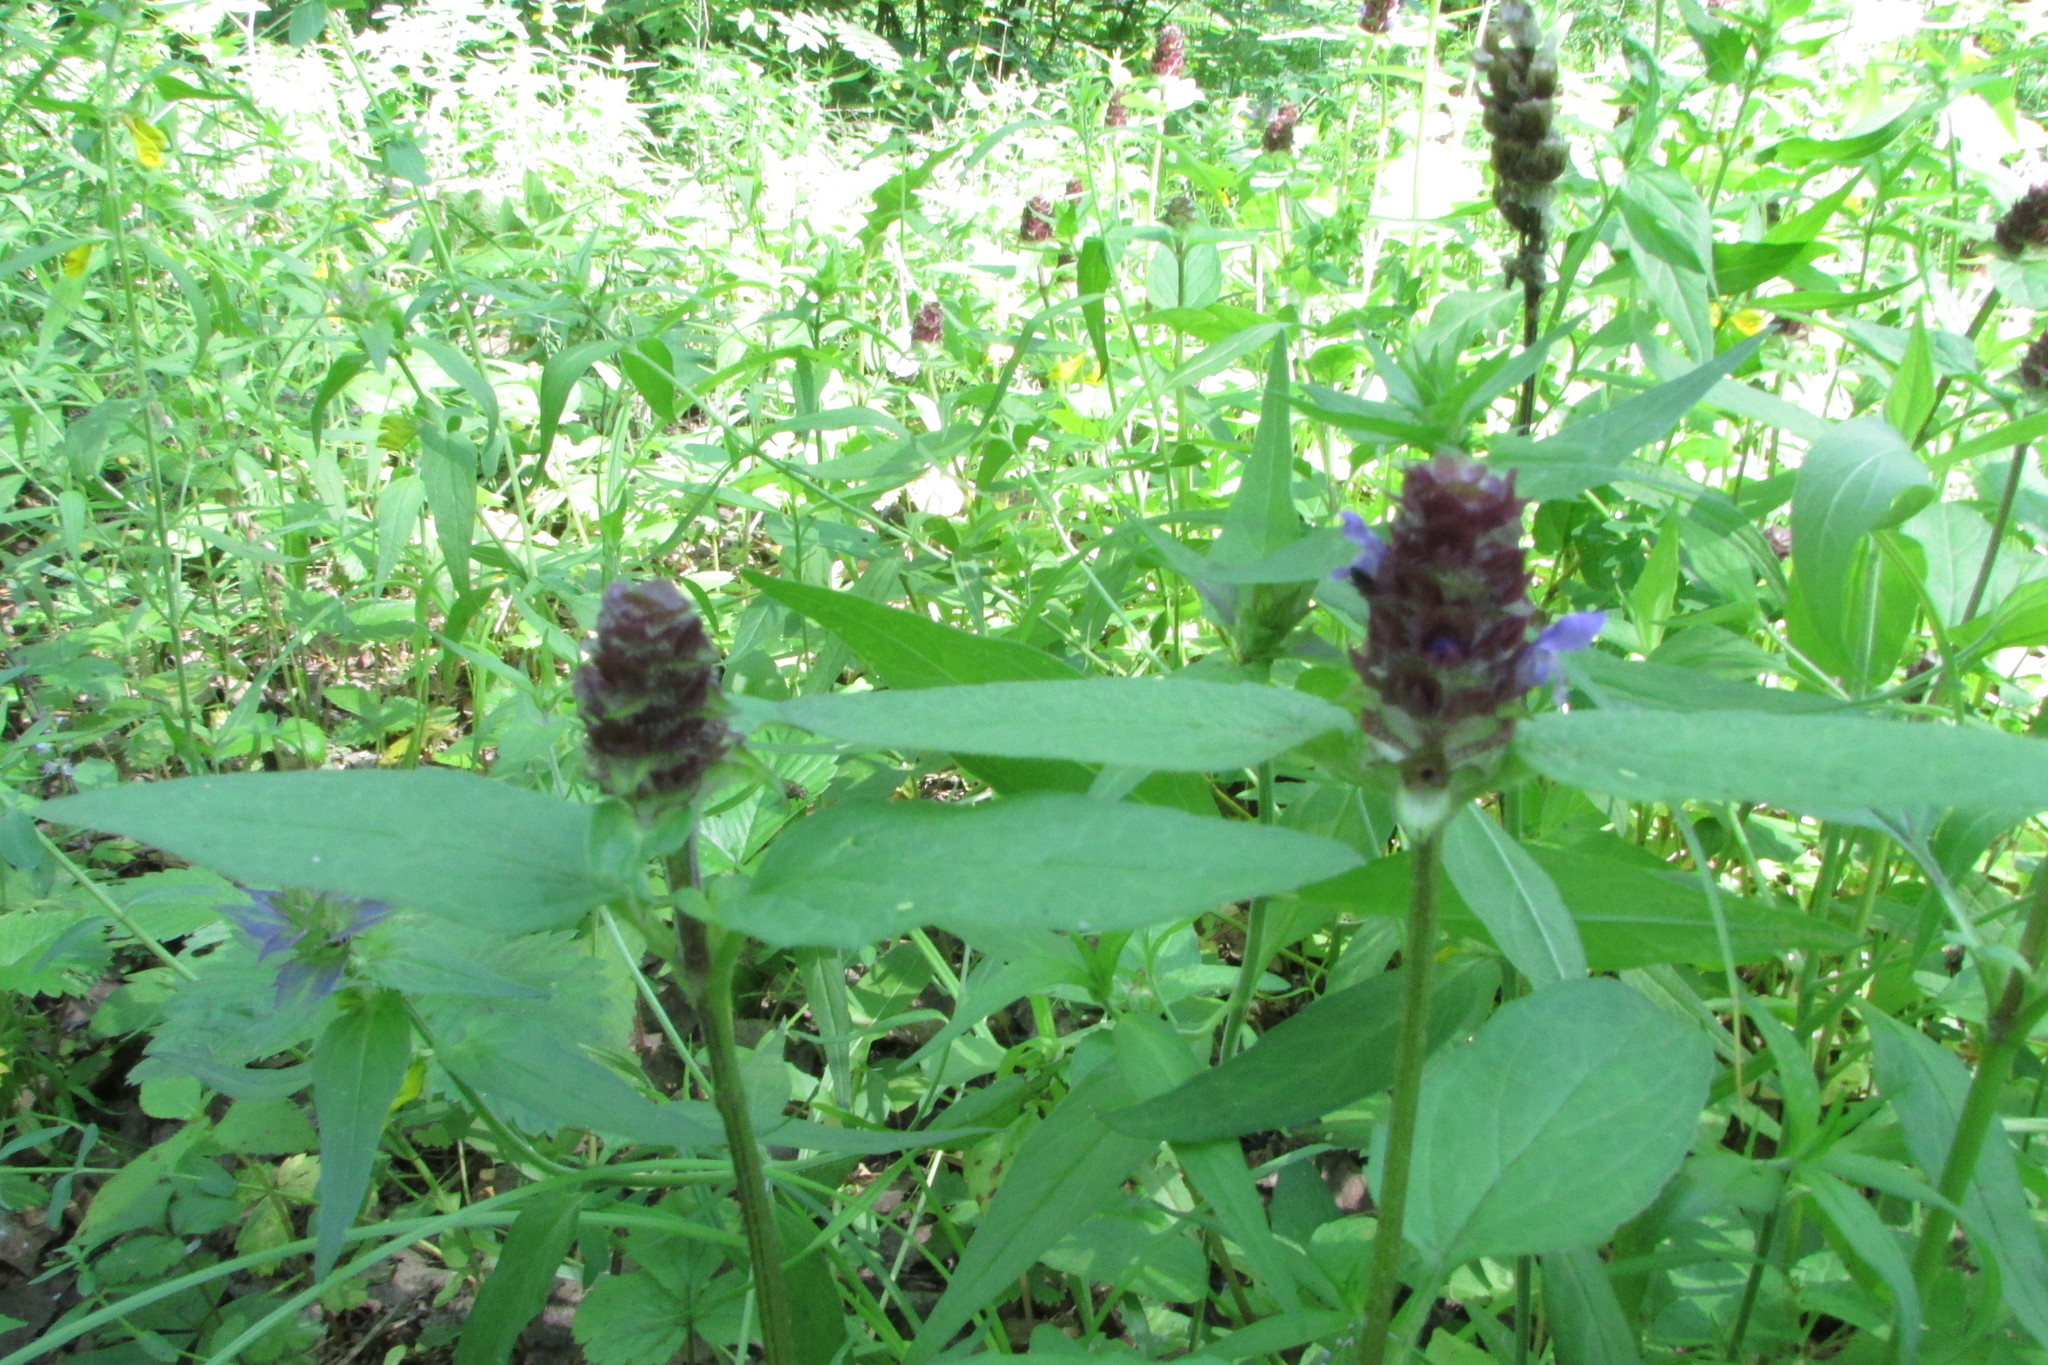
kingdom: Plantae
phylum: Tracheophyta
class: Magnoliopsida
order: Lamiales
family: Lamiaceae
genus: Prunella
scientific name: Prunella vulgaris
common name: Heal-all
